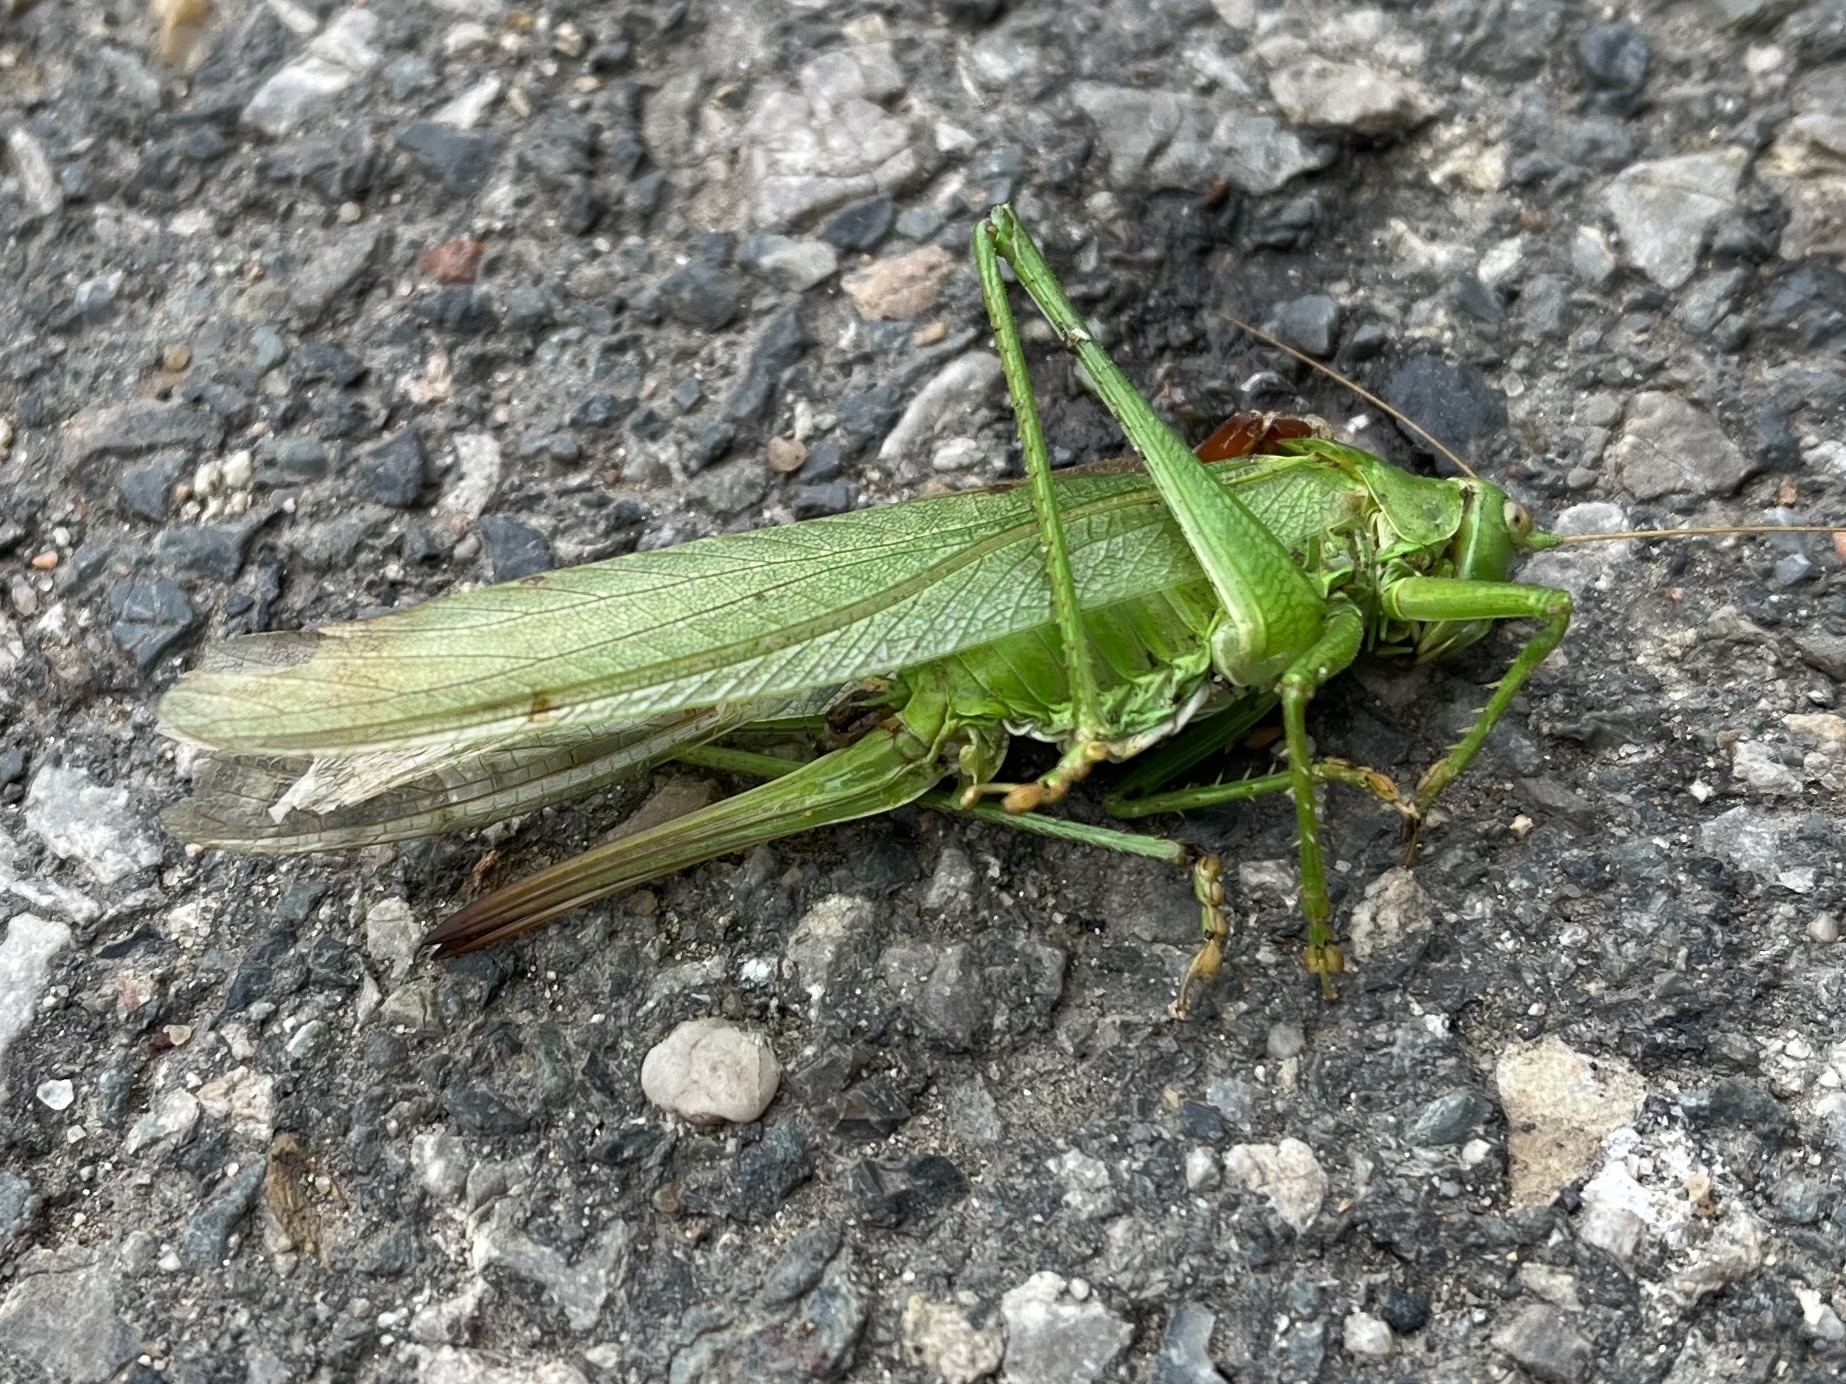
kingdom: Animalia
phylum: Arthropoda
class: Insecta
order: Orthoptera
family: Tettigoniidae
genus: Tettigonia
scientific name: Tettigonia viridissima
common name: Great green bush-cricket
